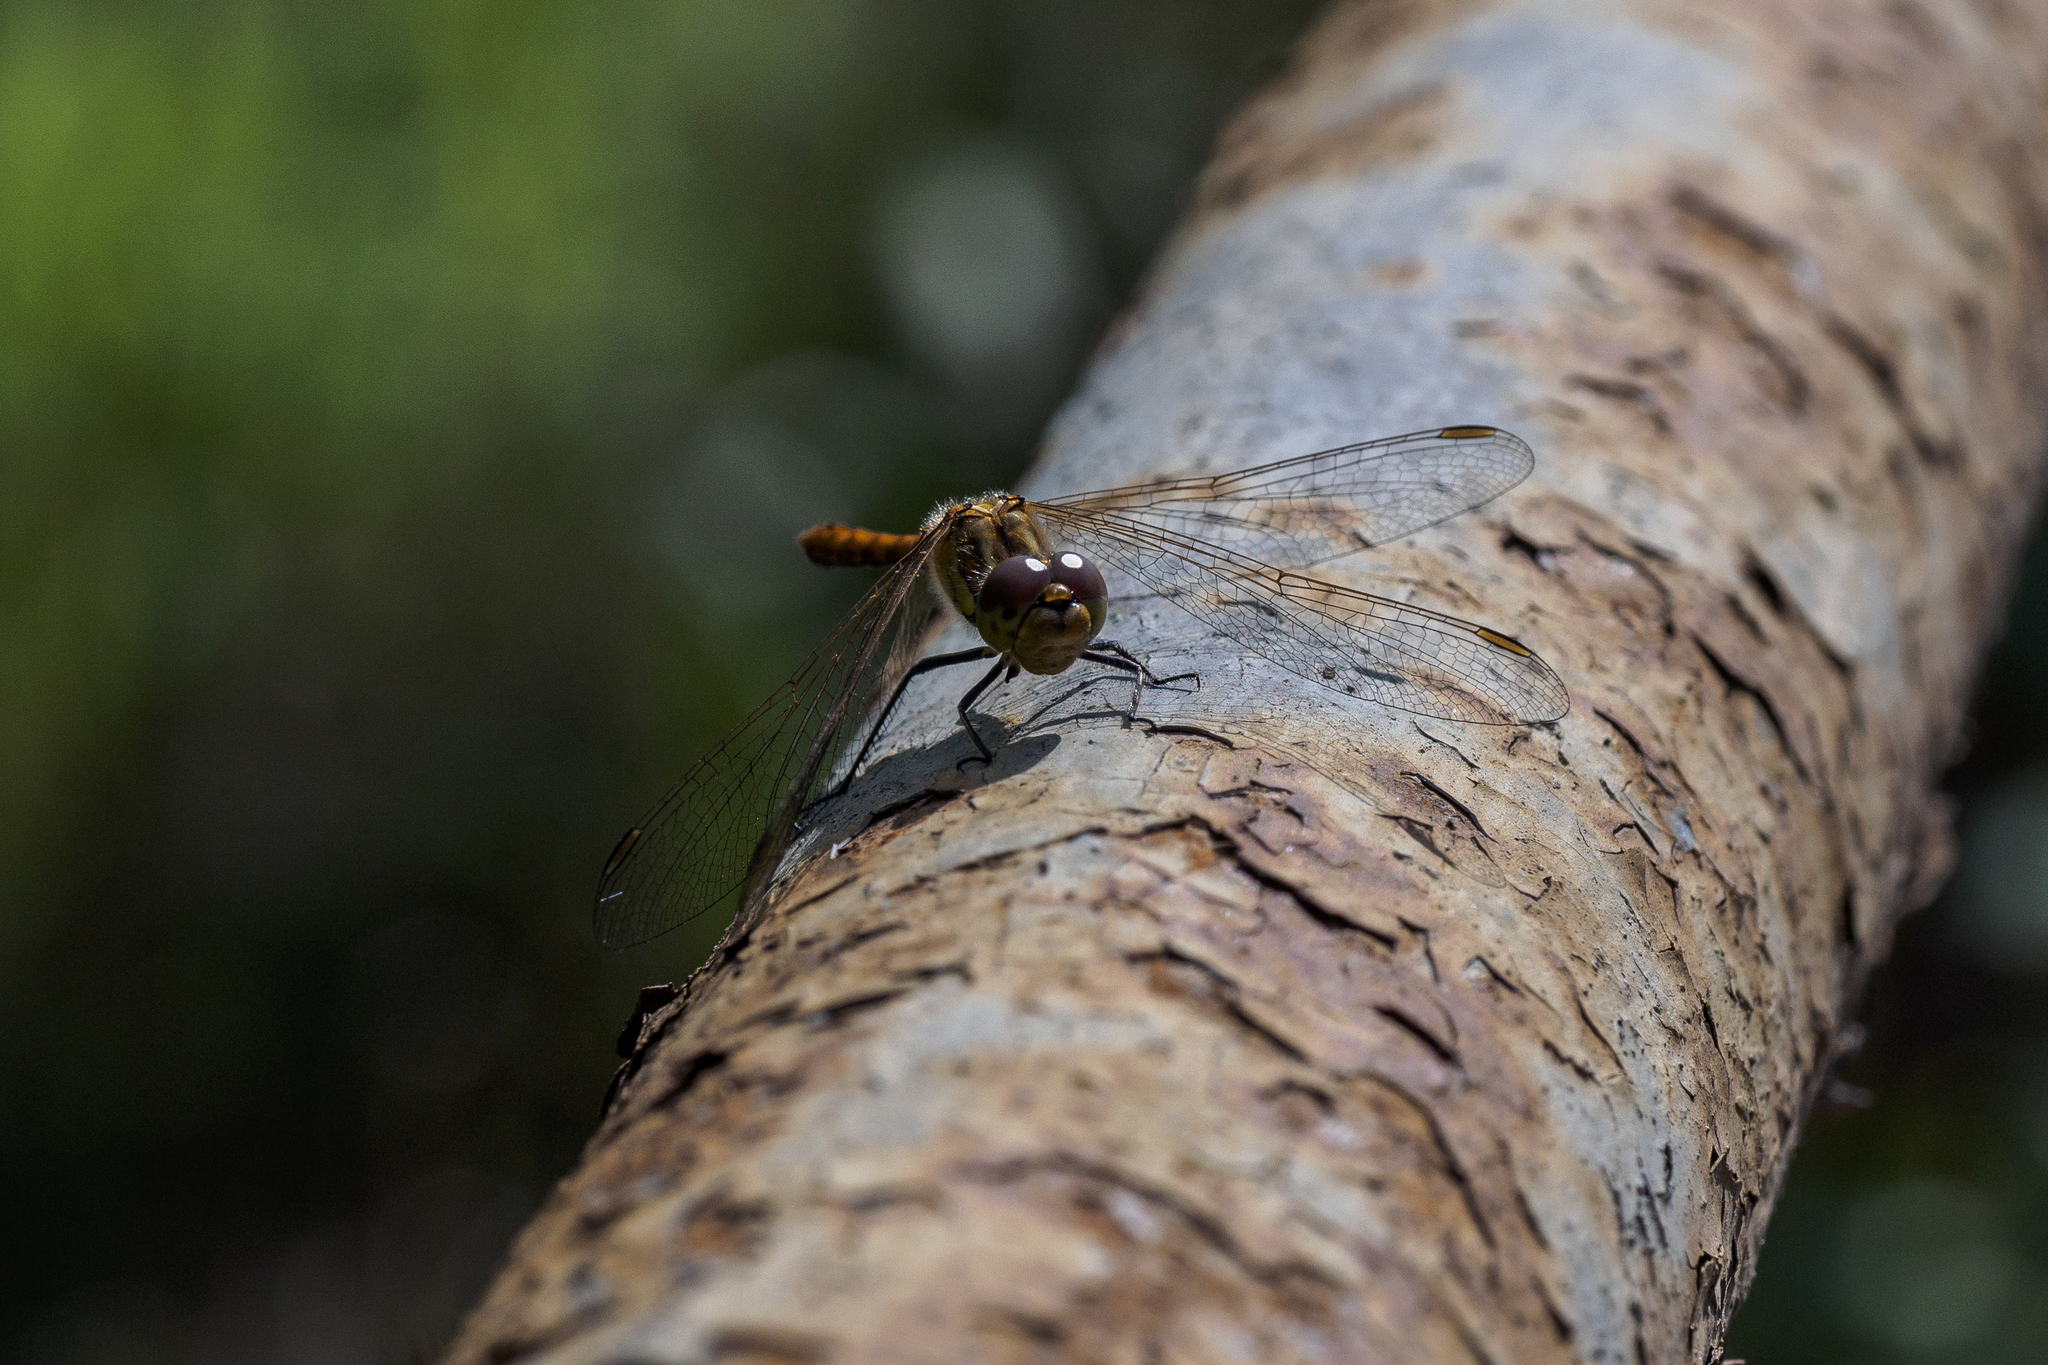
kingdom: Animalia
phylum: Arthropoda
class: Insecta
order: Odonata
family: Libellulidae
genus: Sympetrum
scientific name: Sympetrum vulgatum
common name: Vagrant darter
